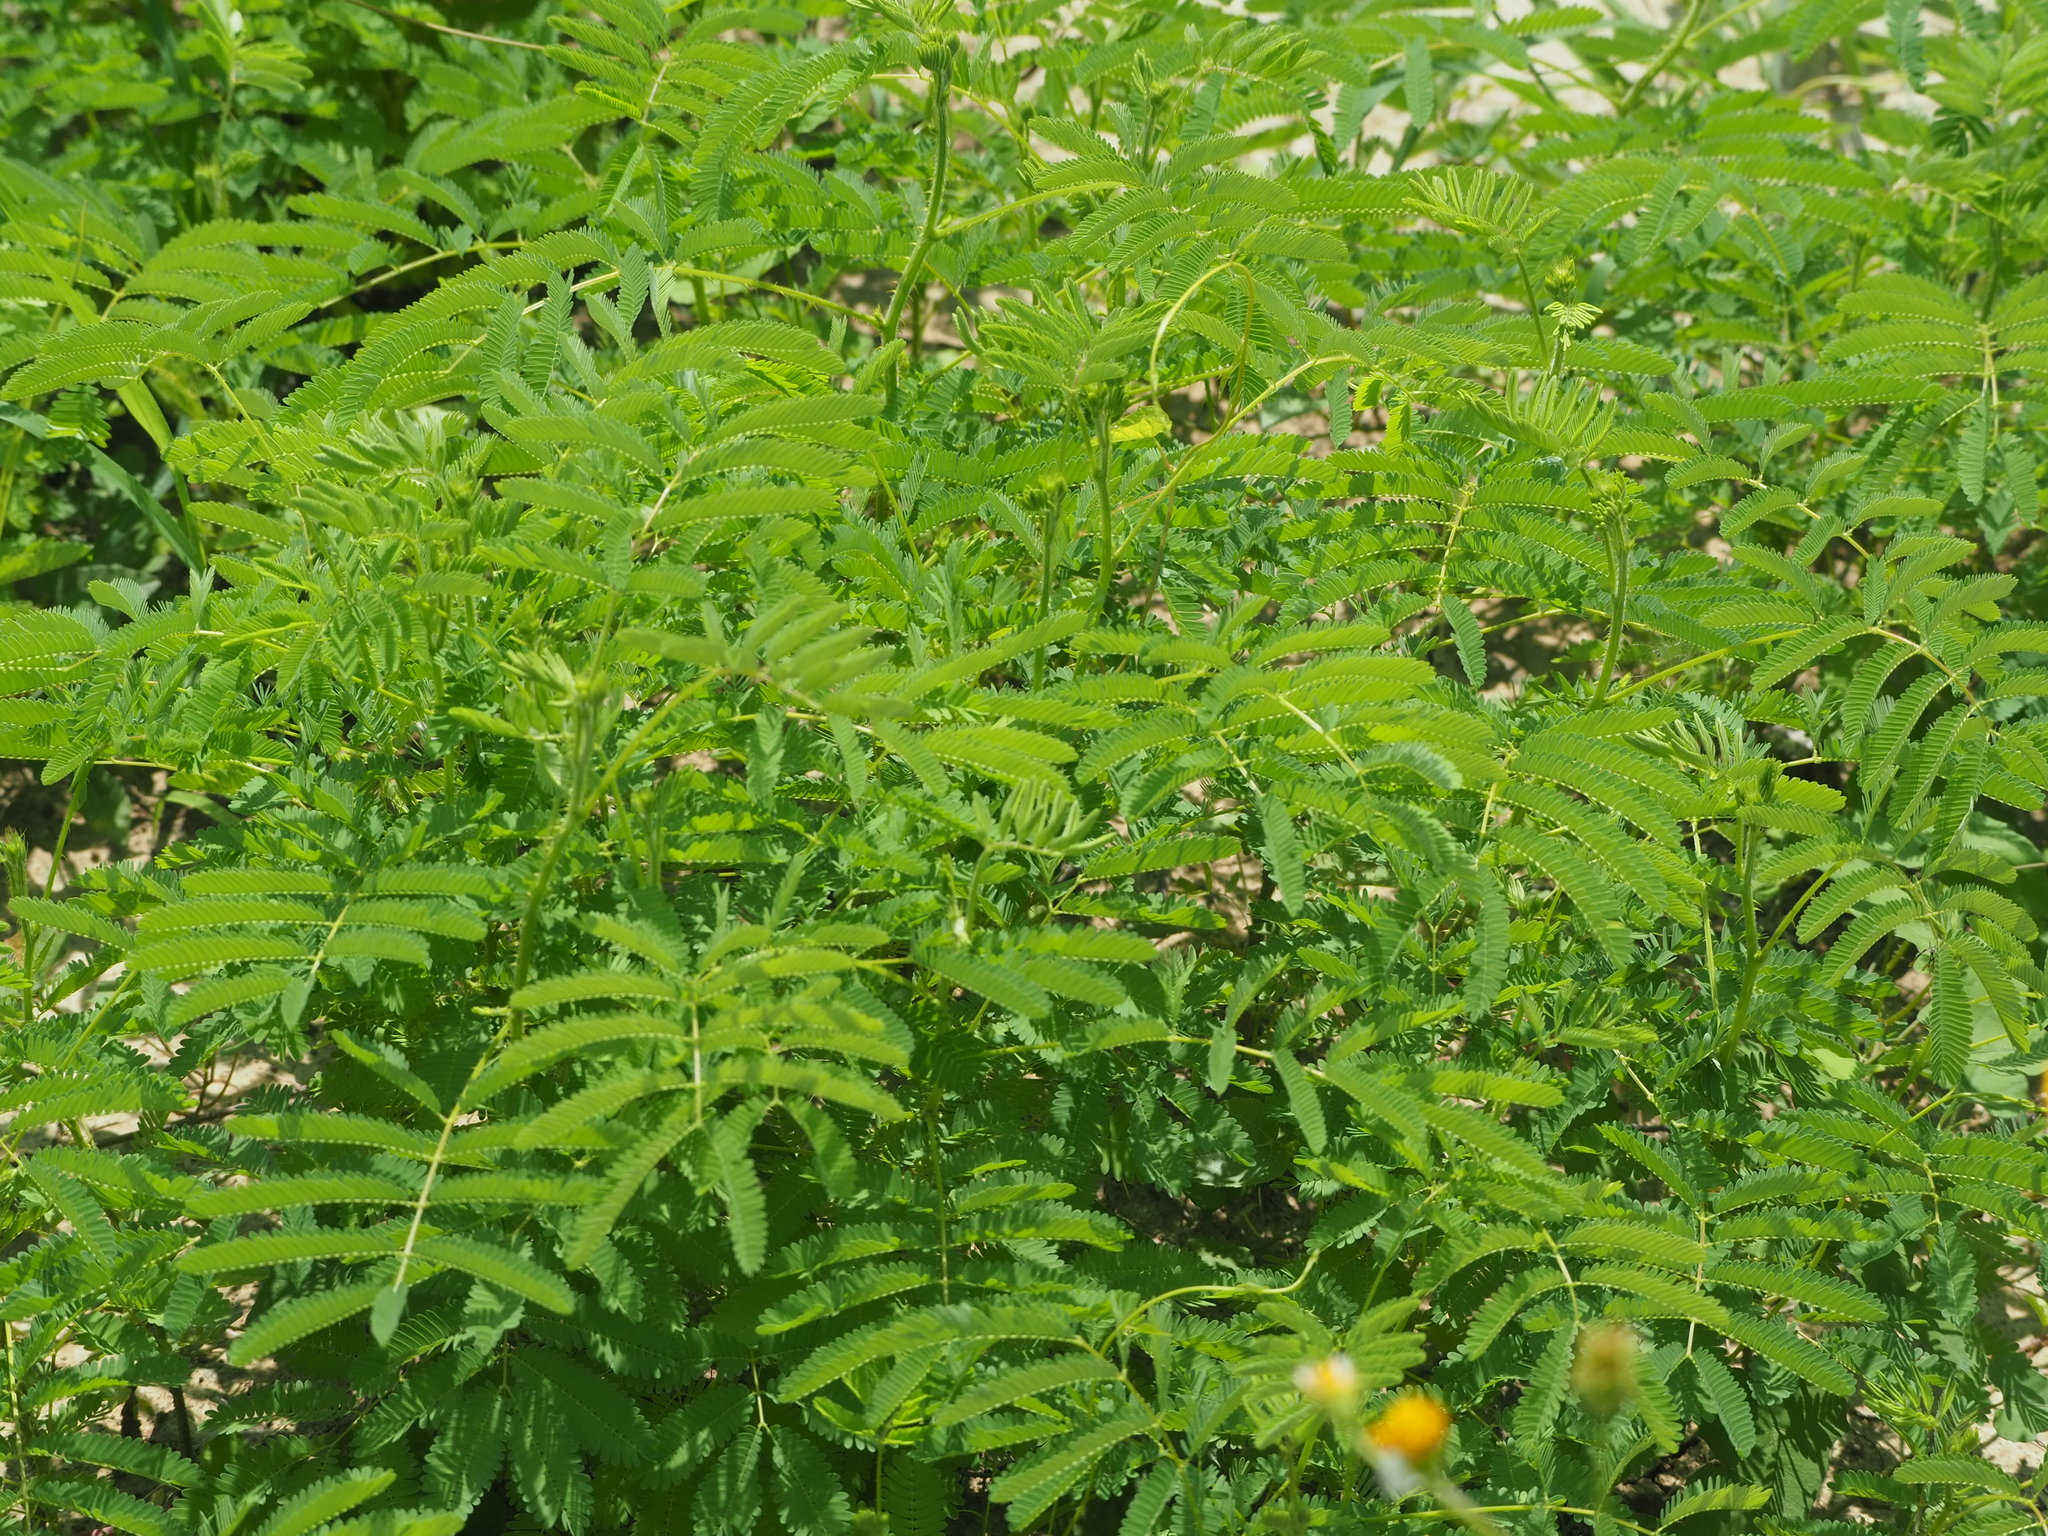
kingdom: Plantae
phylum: Tracheophyta
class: Magnoliopsida
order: Fabales
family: Fabaceae
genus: Mimosa
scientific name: Mimosa diplotricha
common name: Giant sensitive-plant
